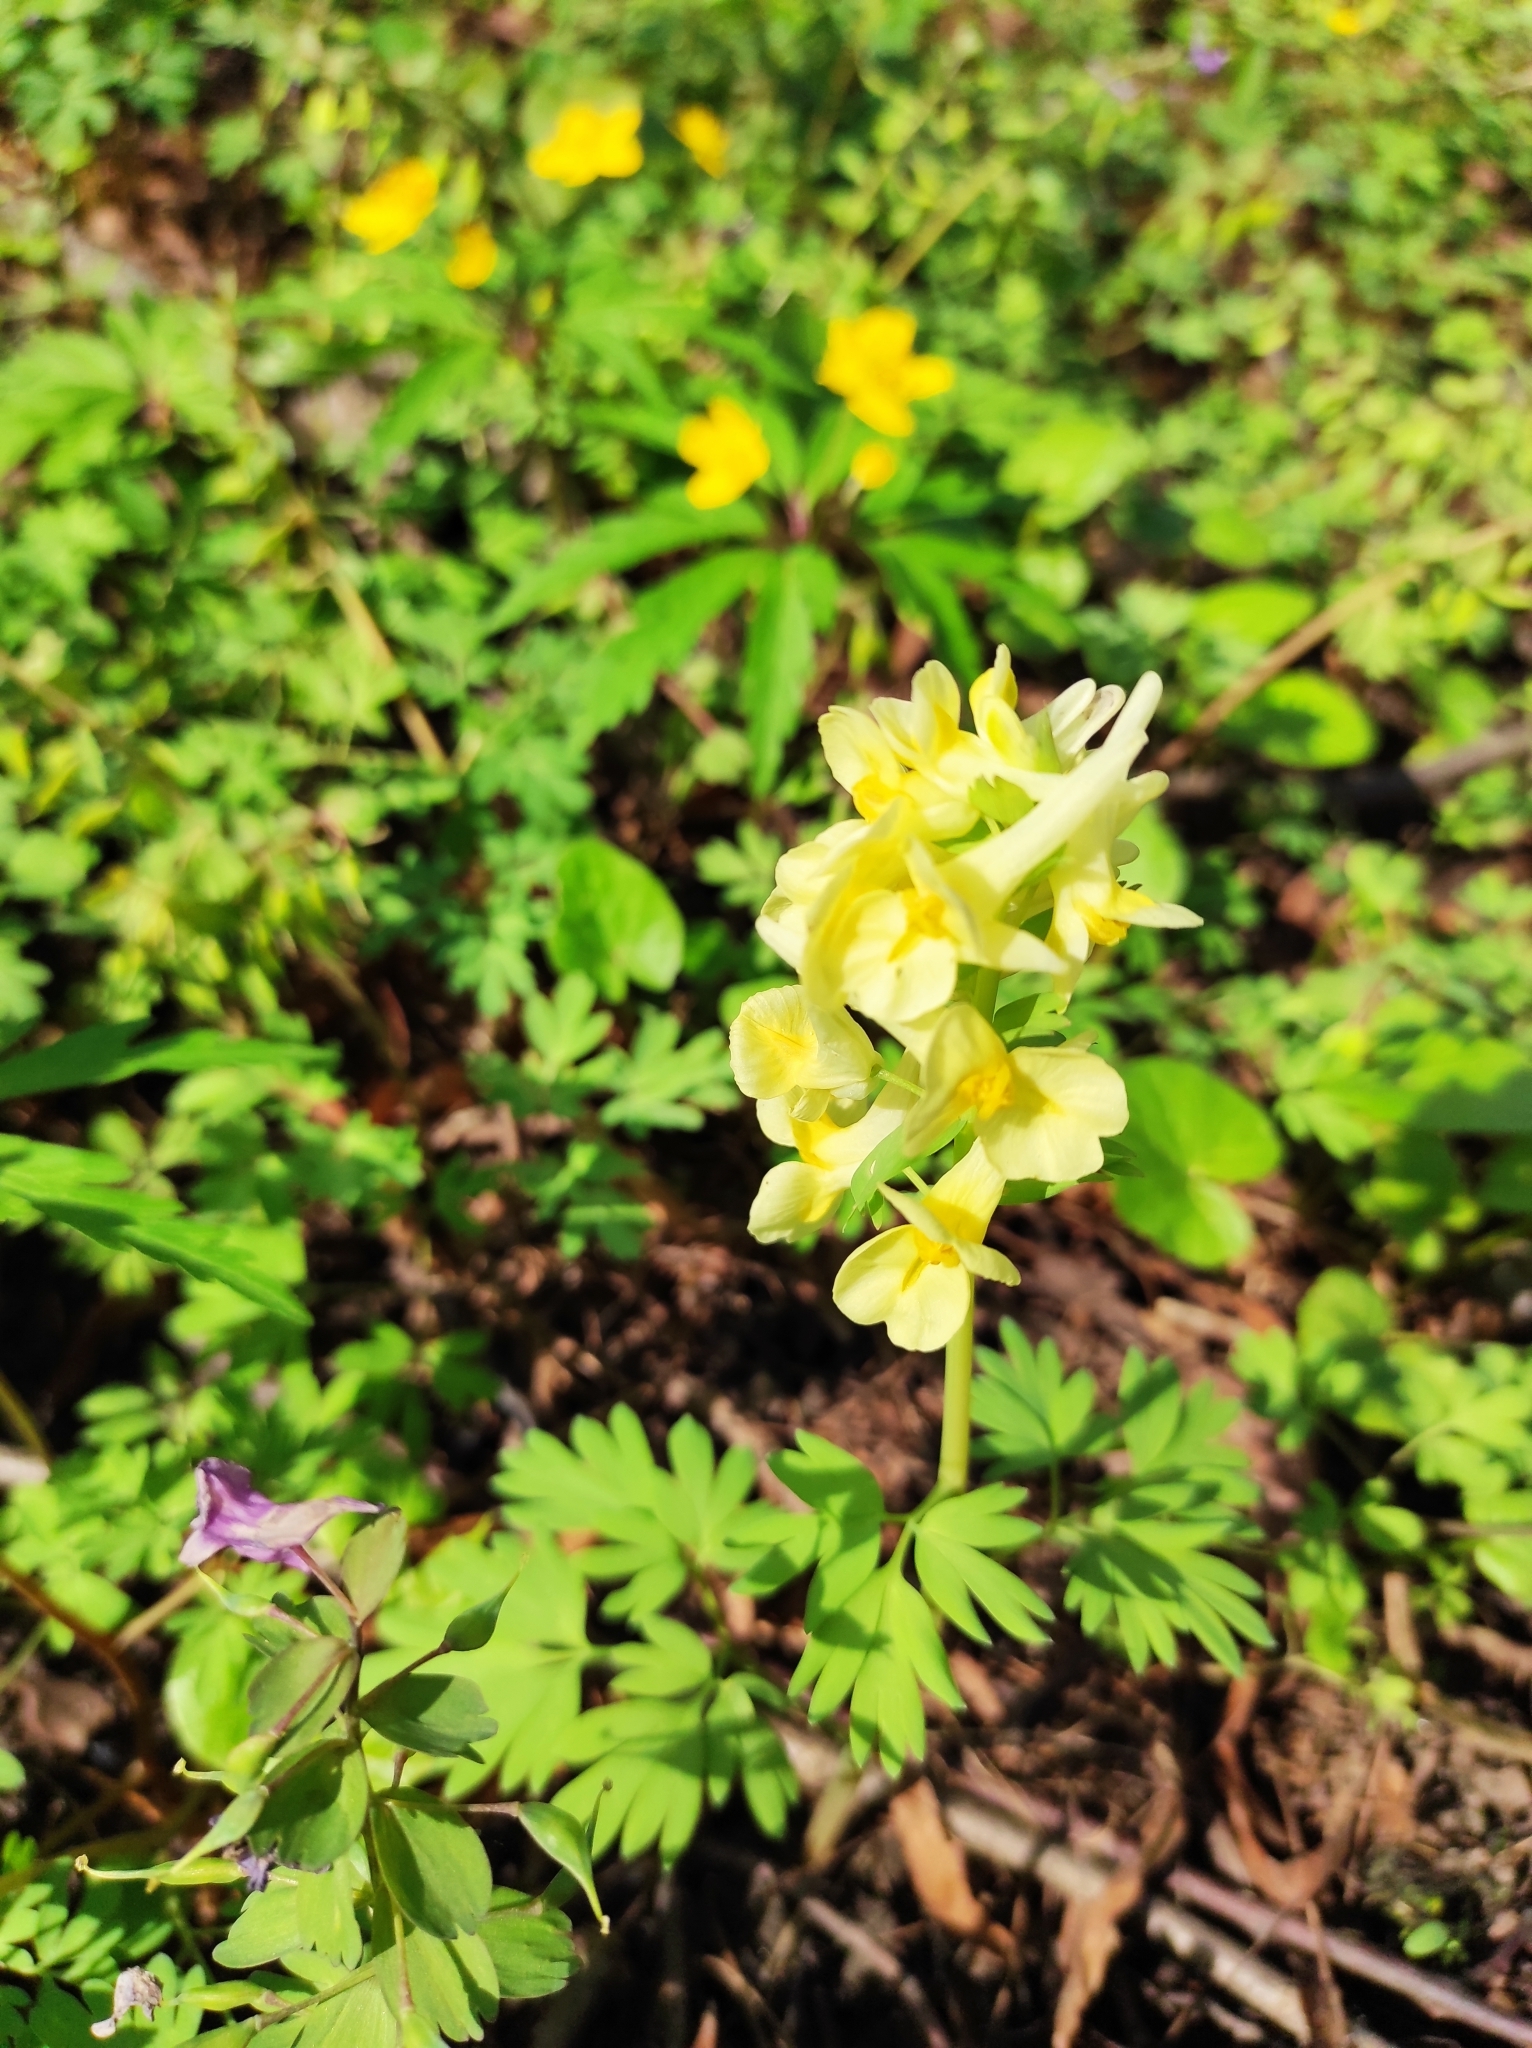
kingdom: Plantae
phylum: Tracheophyta
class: Magnoliopsida
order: Ranunculales
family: Papaveraceae
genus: Corydalis
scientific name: Corydalis bracteata
